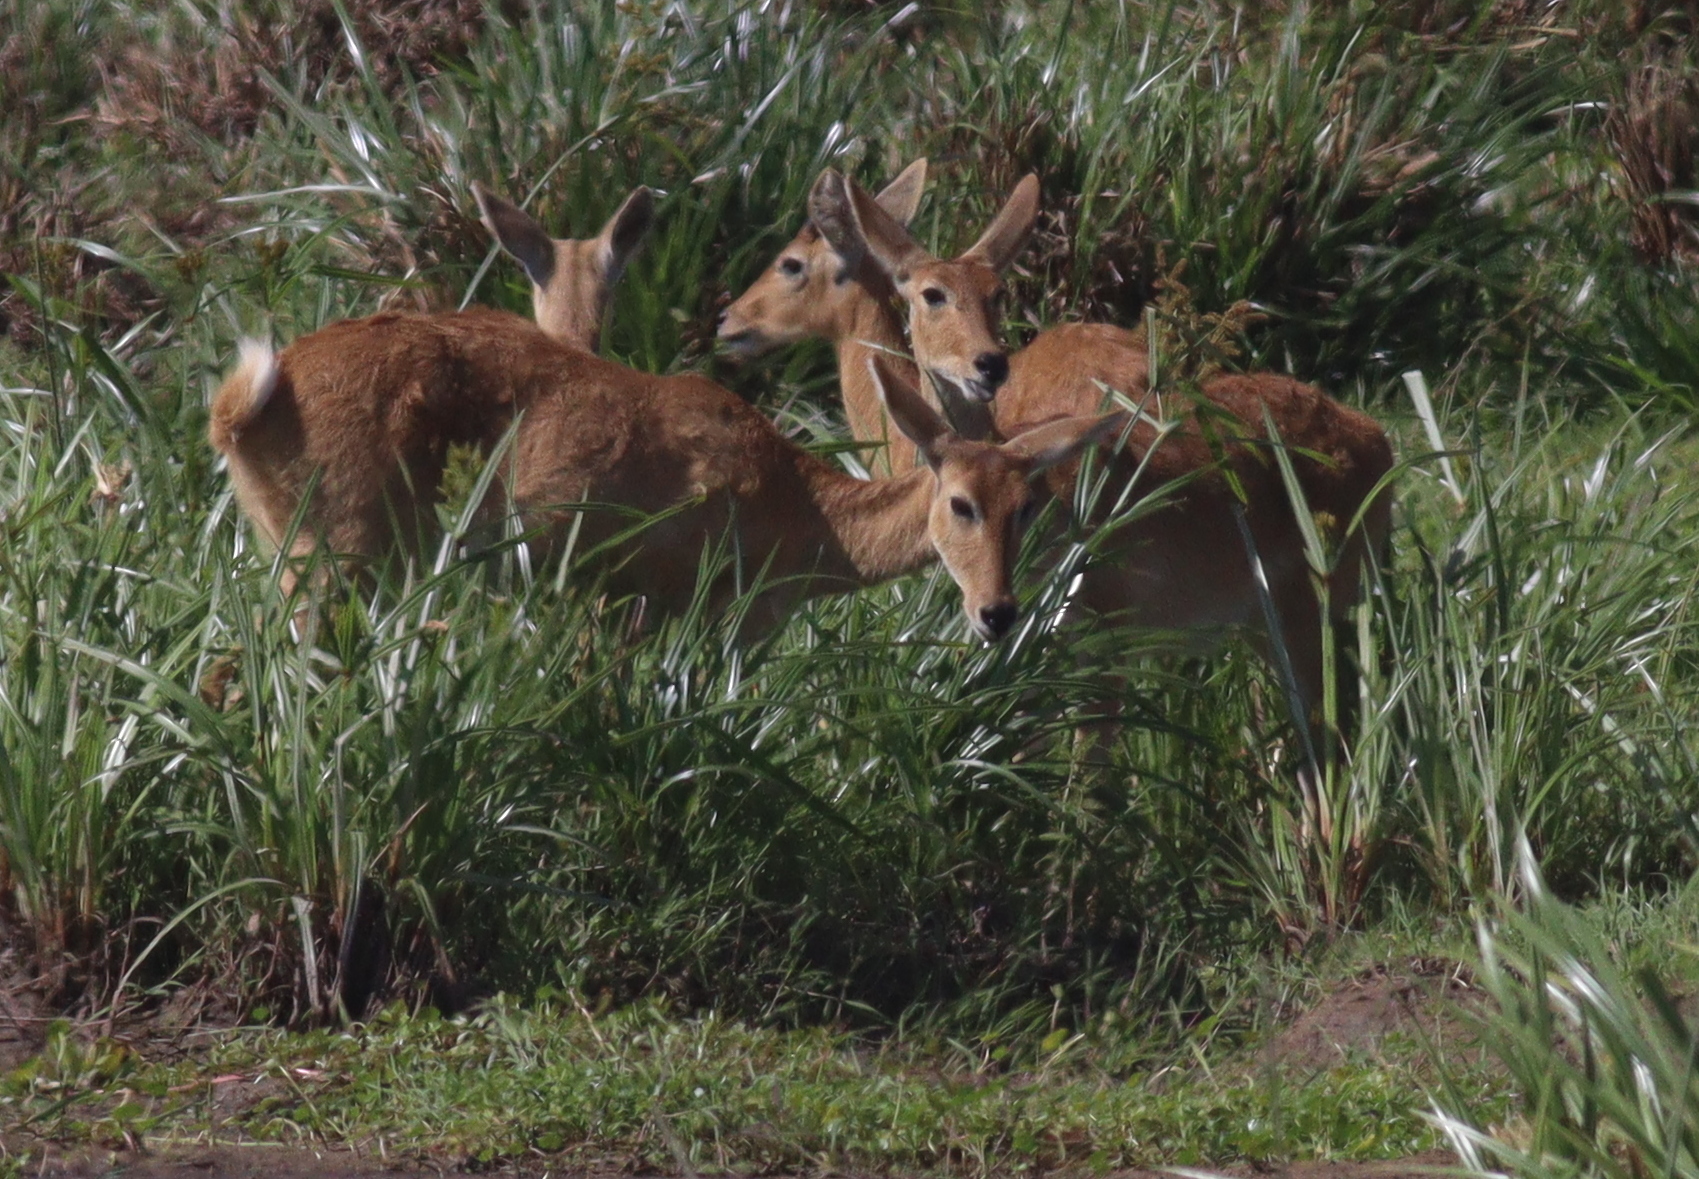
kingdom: Animalia
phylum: Chordata
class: Mammalia
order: Artiodactyla
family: Bovidae
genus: Redunca
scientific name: Redunca redunca
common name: Common reedbuck
